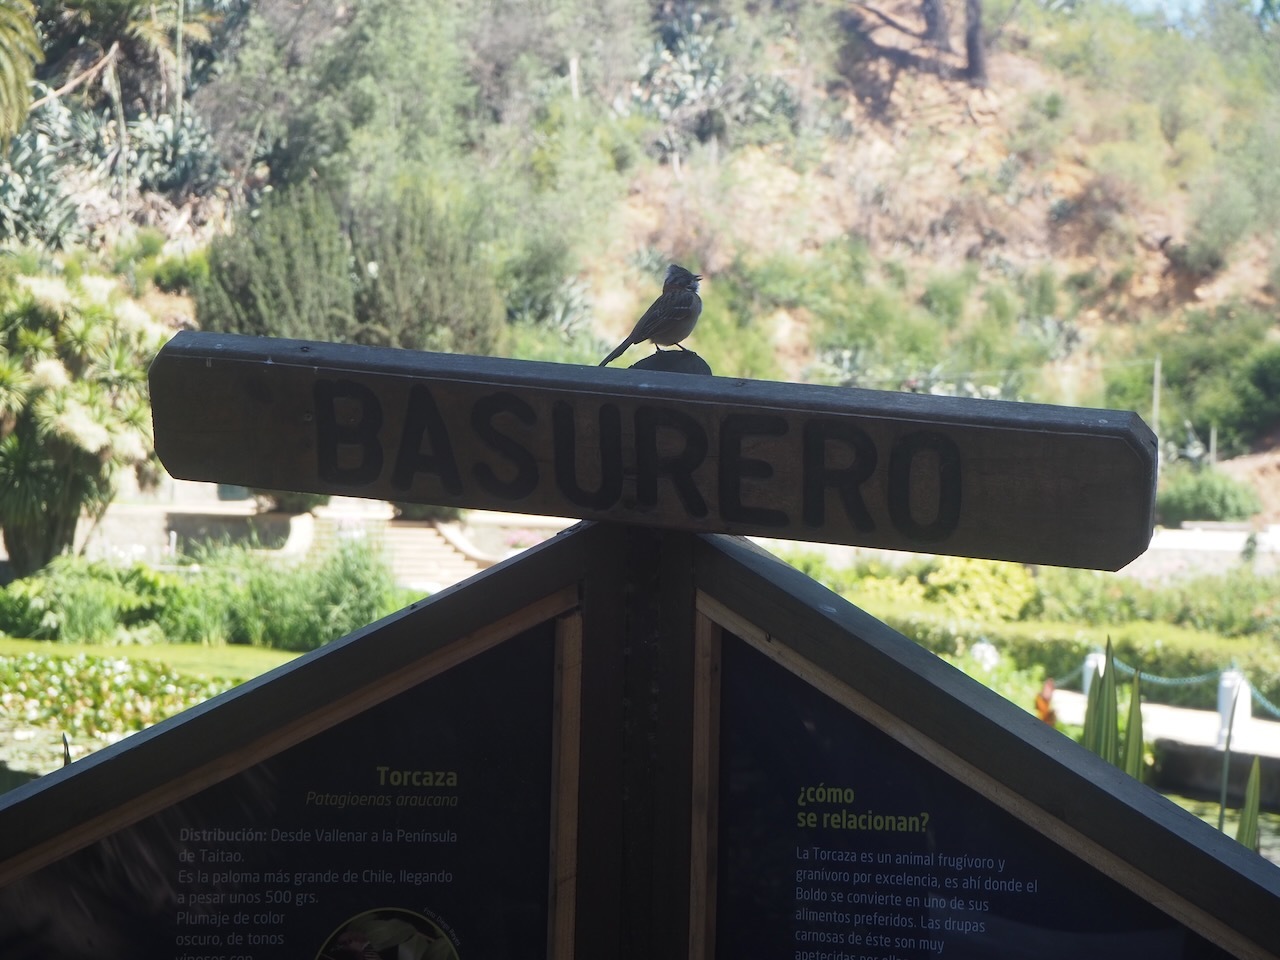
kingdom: Animalia
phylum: Chordata
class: Aves
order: Passeriformes
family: Passerellidae
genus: Zonotrichia
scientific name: Zonotrichia capensis
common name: Rufous-collared sparrow
